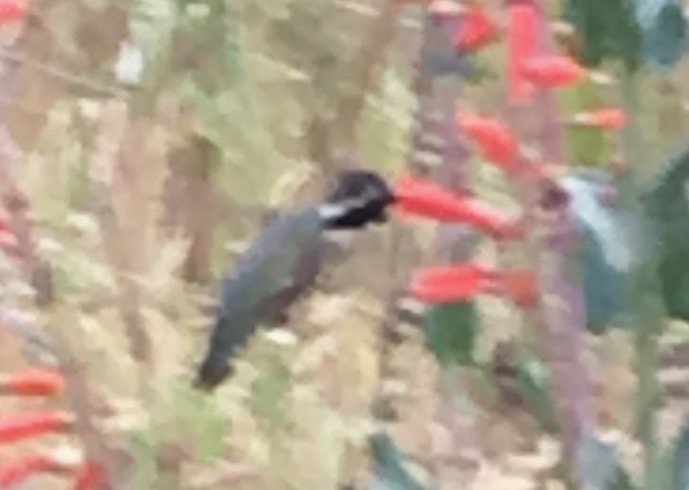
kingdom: Animalia
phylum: Chordata
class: Aves
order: Apodiformes
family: Trochilidae
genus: Calypte
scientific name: Calypte costae
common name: Costa's hummingbird
